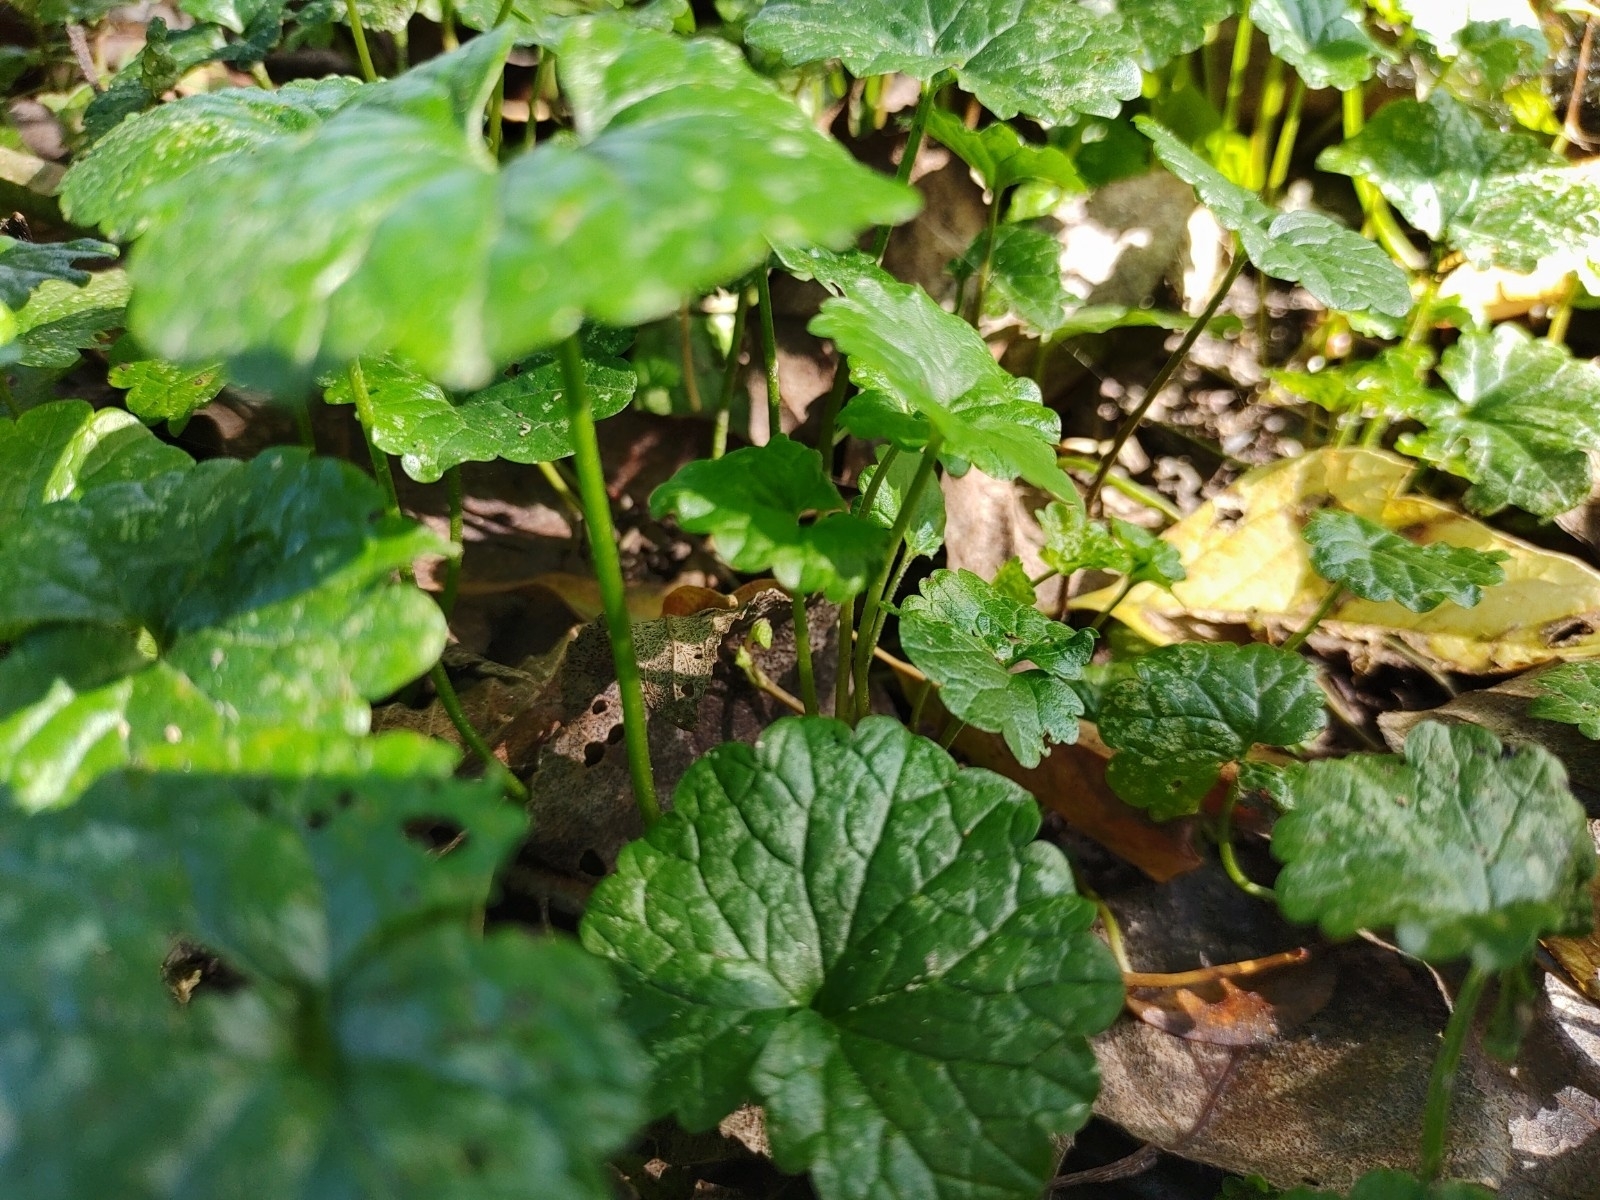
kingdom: Plantae
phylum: Tracheophyta
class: Magnoliopsida
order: Lamiales
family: Lamiaceae
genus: Glechoma
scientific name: Glechoma hederacea
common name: Ground ivy
